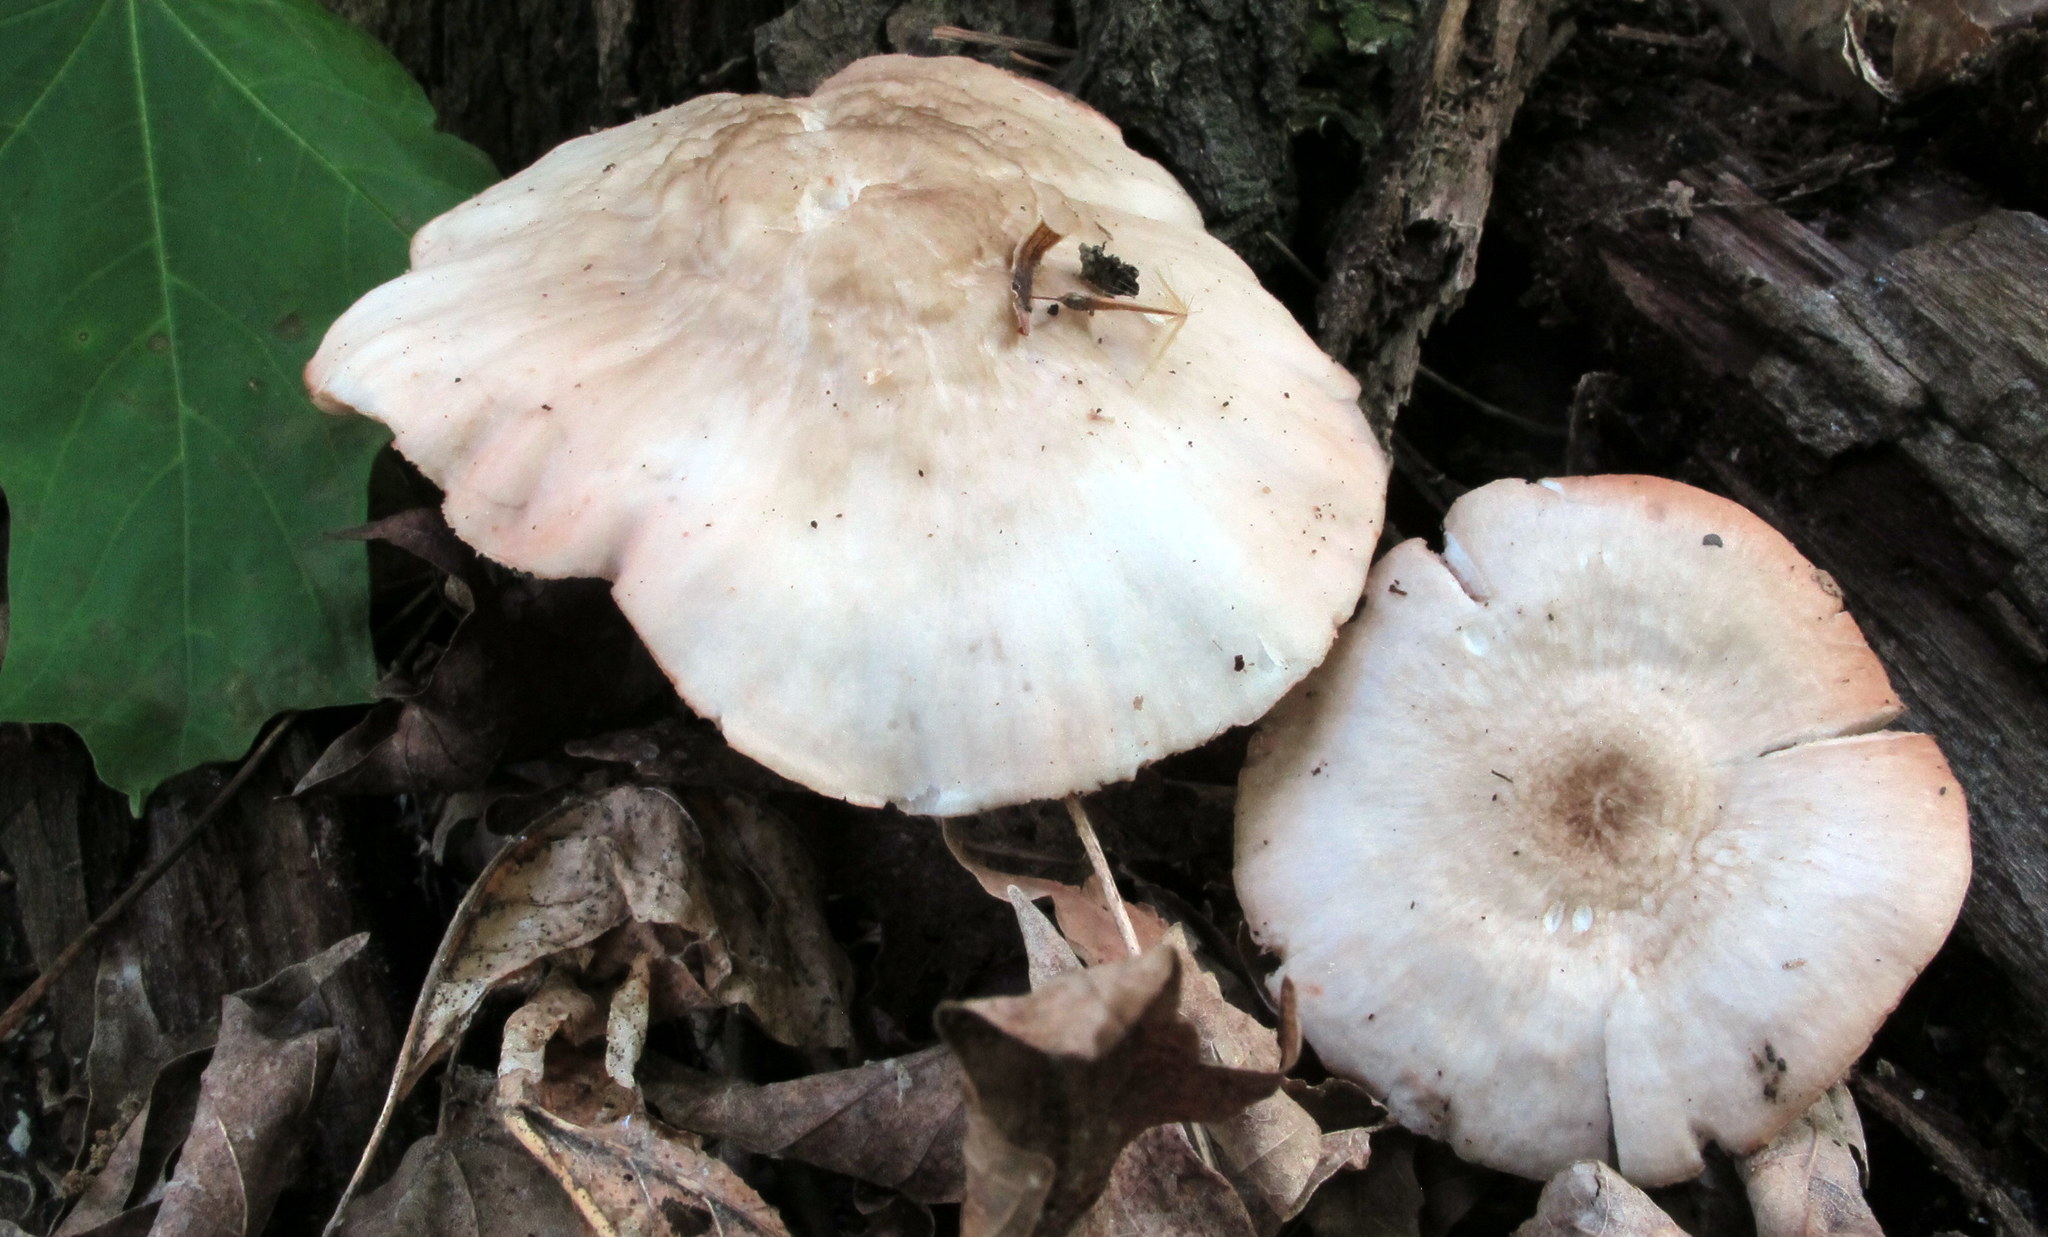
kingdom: Fungi
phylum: Basidiomycota
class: Agaricomycetes
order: Agaricales
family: Pluteaceae
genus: Pluteus
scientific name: Pluteus cervinus
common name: Deer shield
